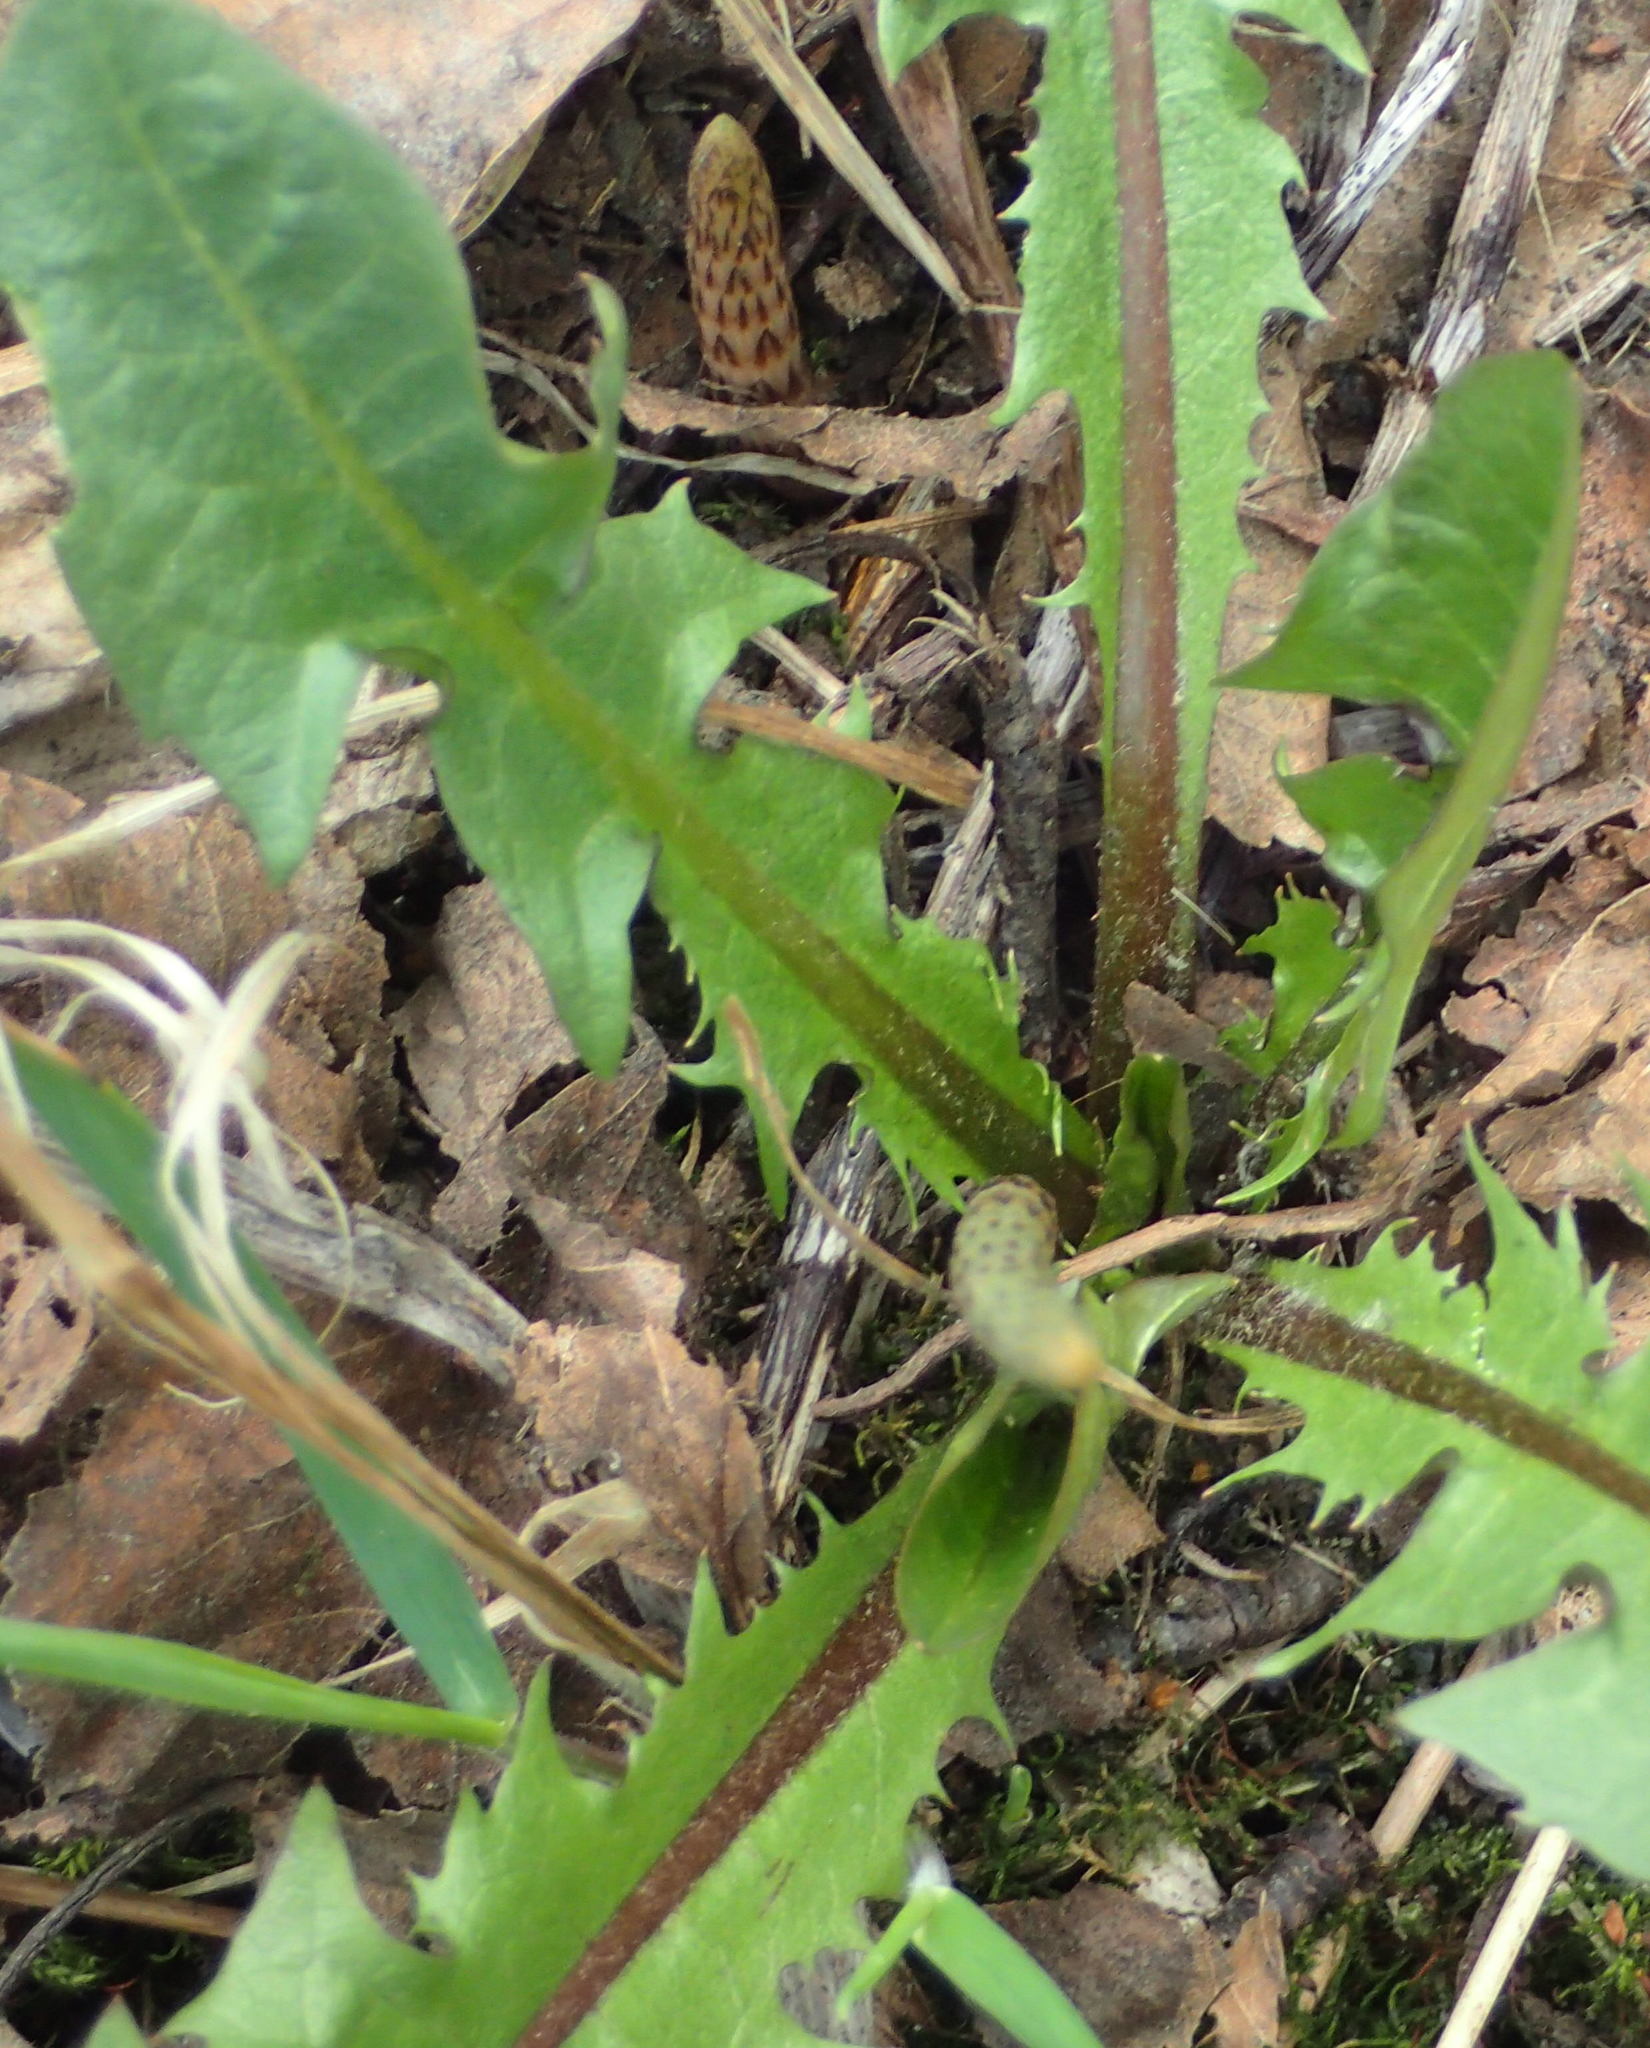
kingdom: Plantae
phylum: Tracheophyta
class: Magnoliopsida
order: Asterales
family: Asteraceae
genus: Taraxacum
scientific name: Taraxacum officinale
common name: Common dandelion
